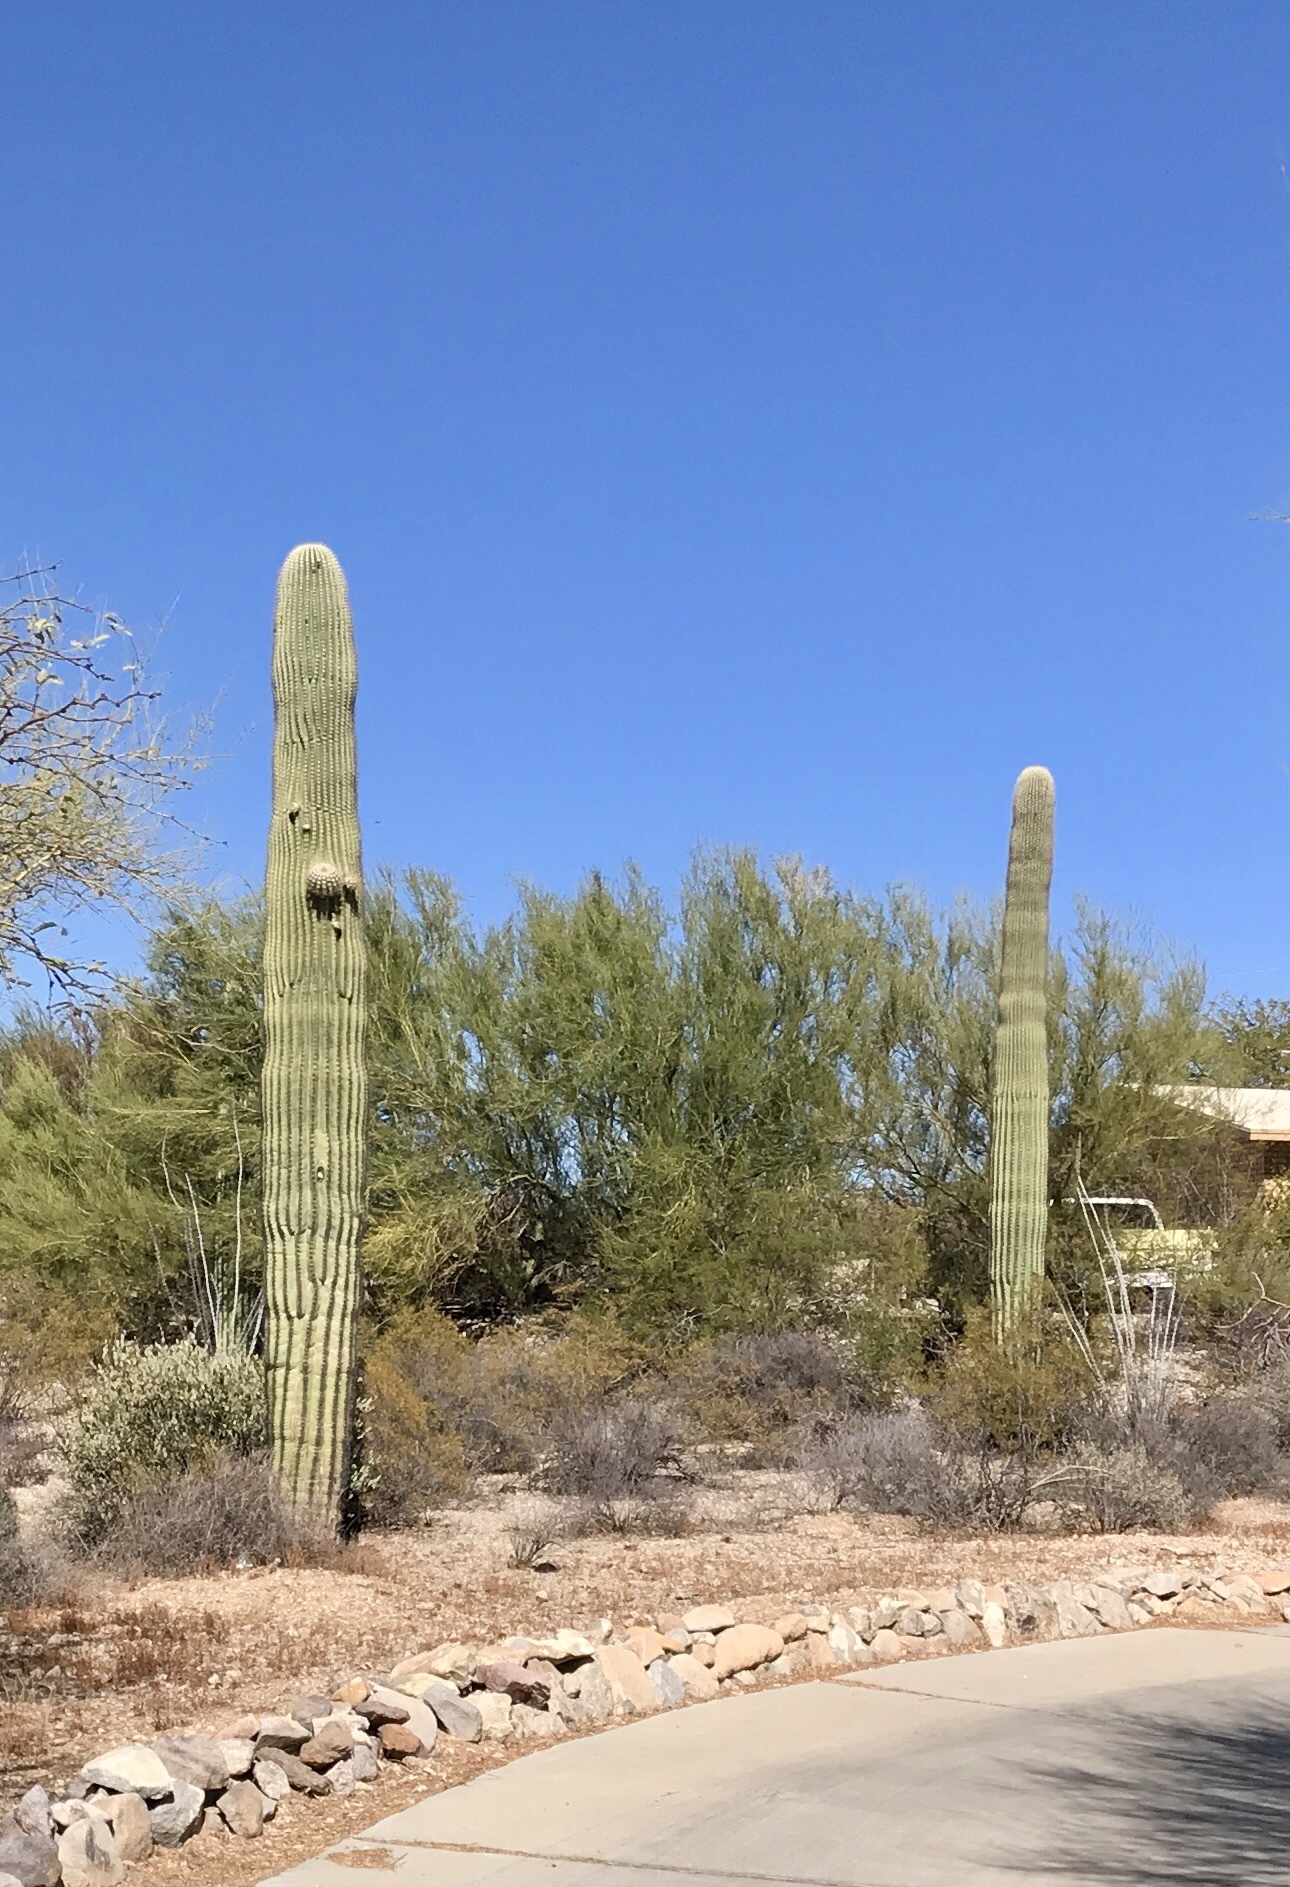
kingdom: Plantae
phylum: Tracheophyta
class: Magnoliopsida
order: Caryophyllales
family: Cactaceae
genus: Carnegiea
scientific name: Carnegiea gigantea
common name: Saguaro
